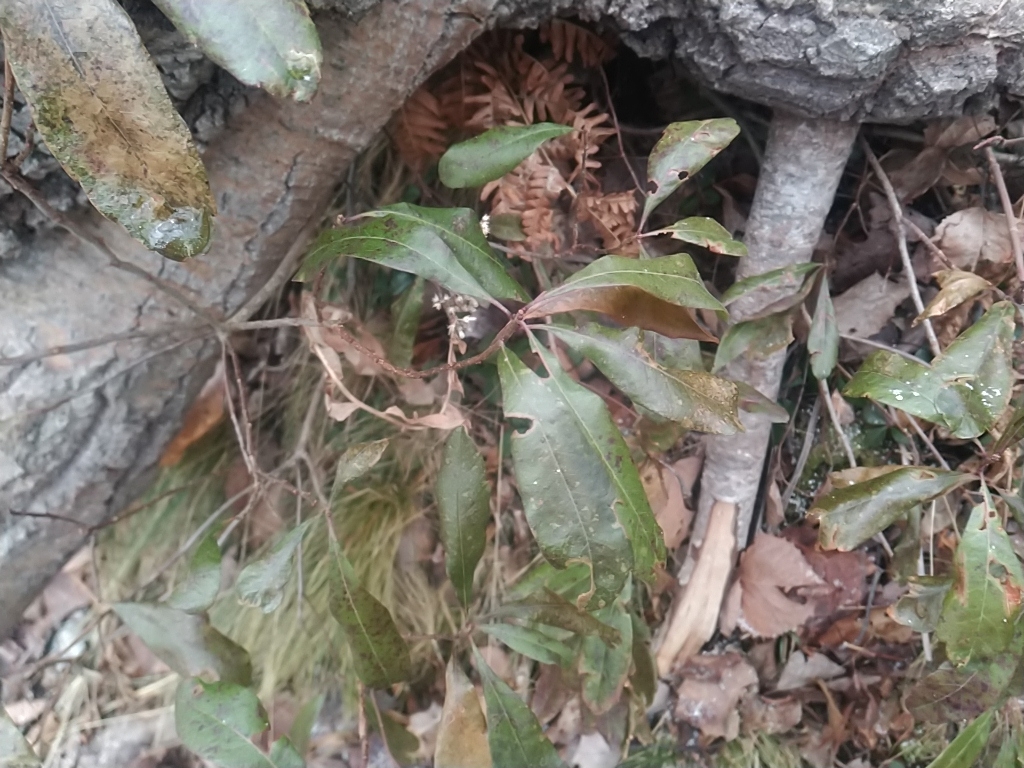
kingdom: Plantae
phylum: Tracheophyta
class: Magnoliopsida
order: Fagales
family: Myricaceae
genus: Morella
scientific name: Morella pensylvanica
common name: Northern bayberry
